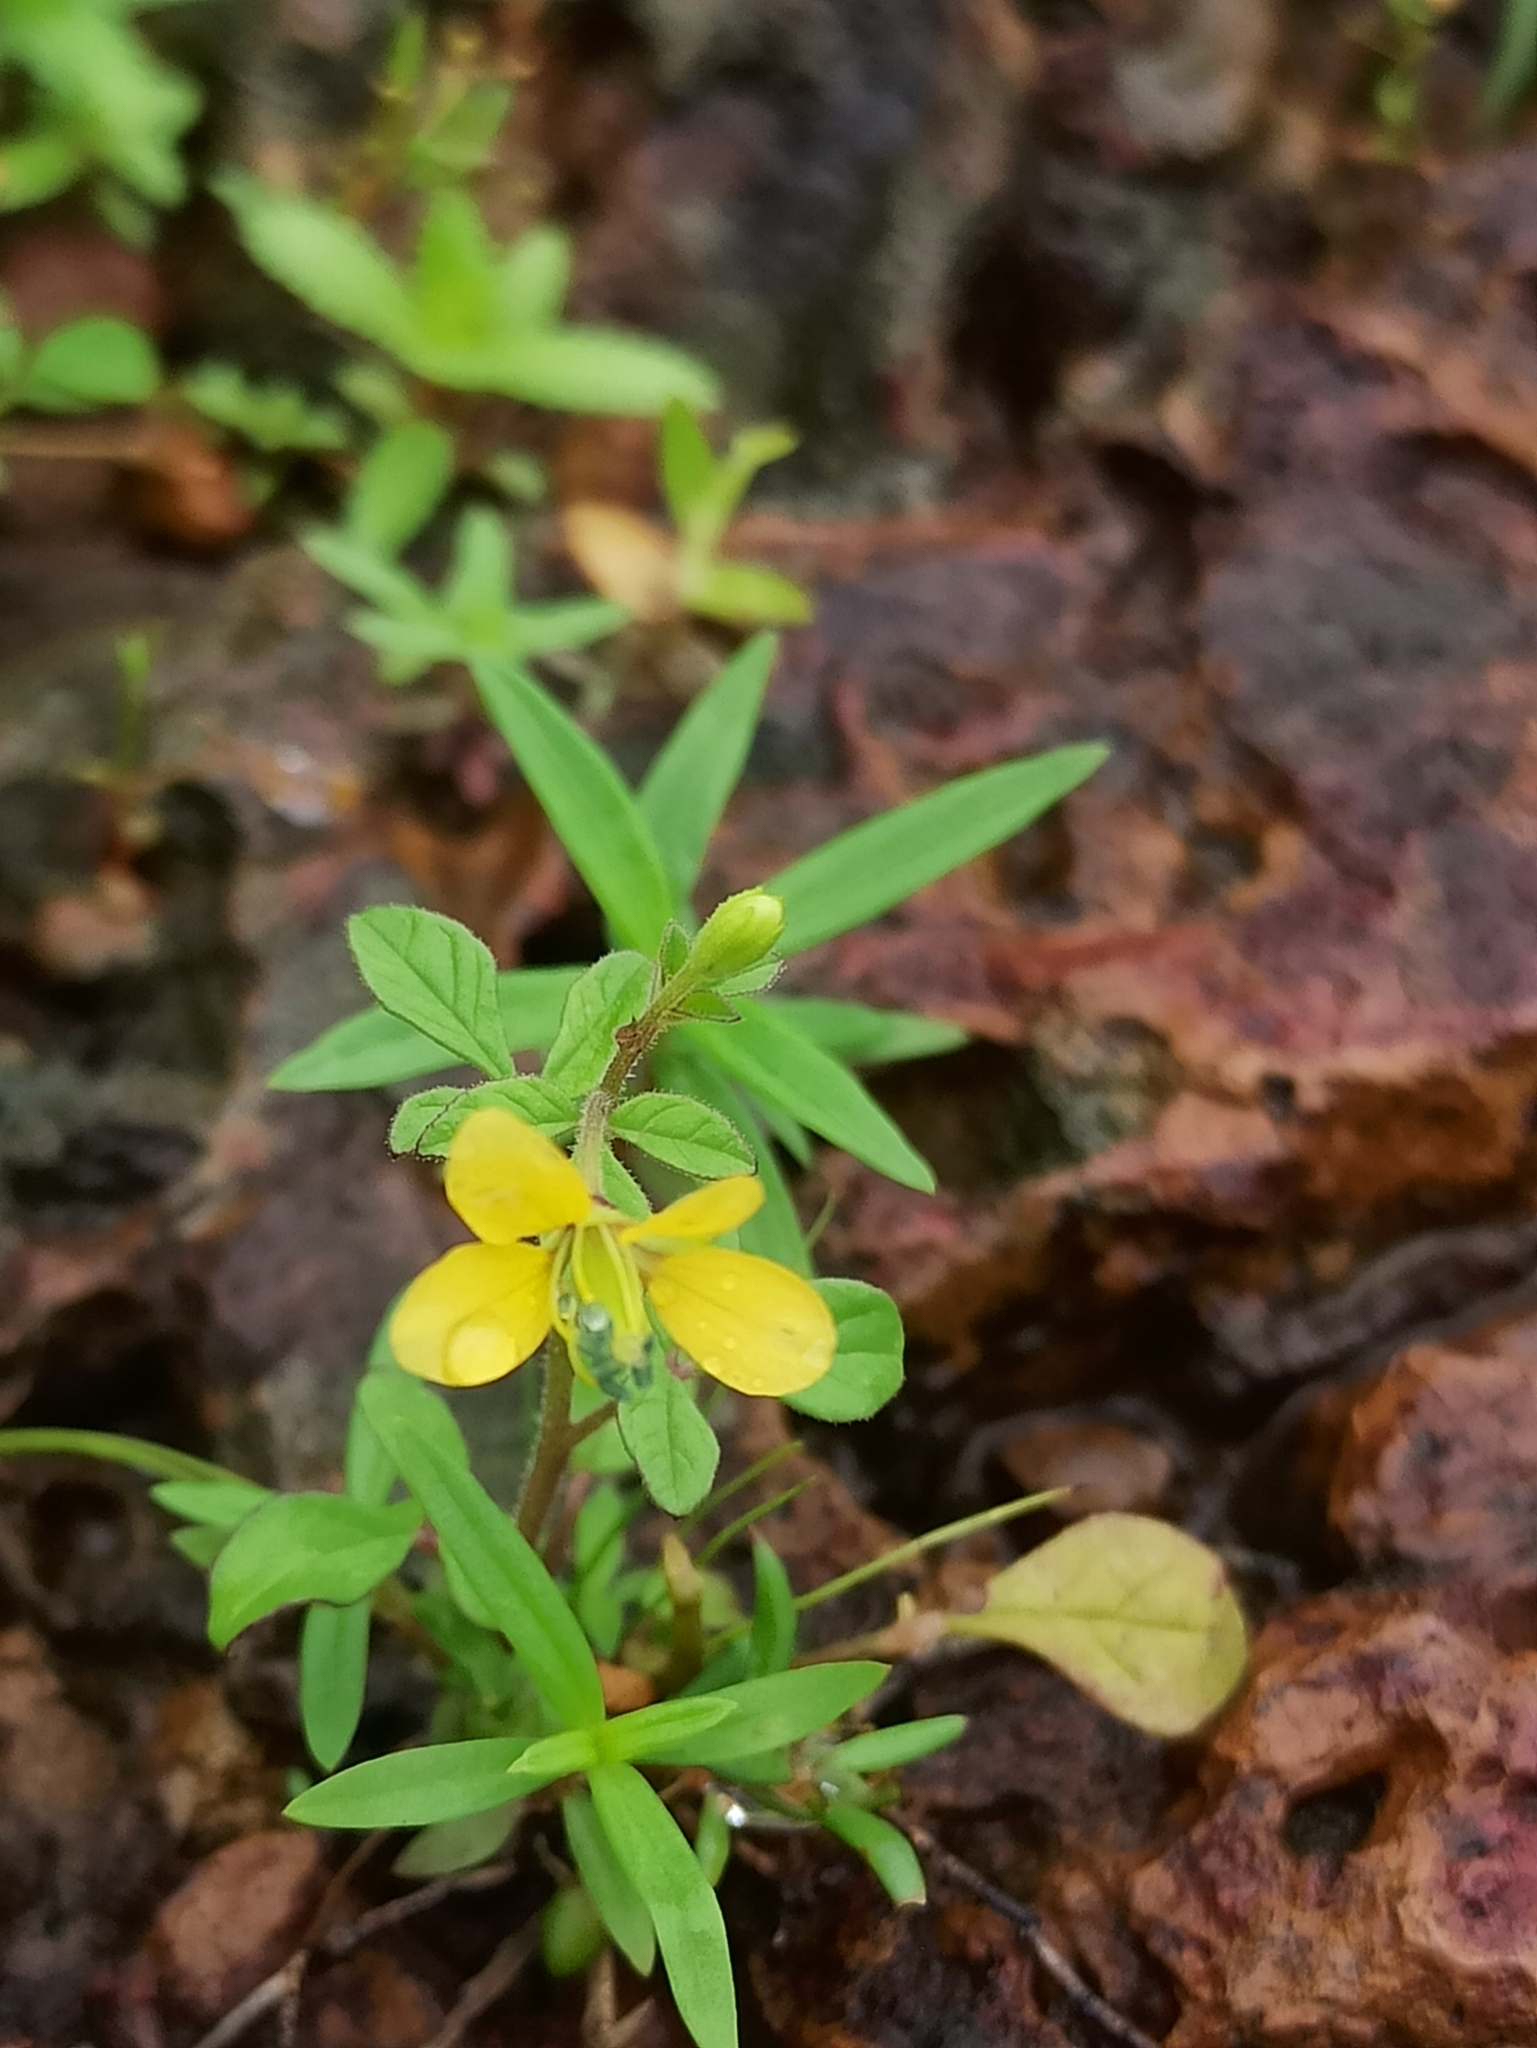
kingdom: Plantae
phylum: Tracheophyta
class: Magnoliopsida
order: Brassicales
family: Cleomaceae
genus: Arivela
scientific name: Arivela viscosa
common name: Asian spiderflower
